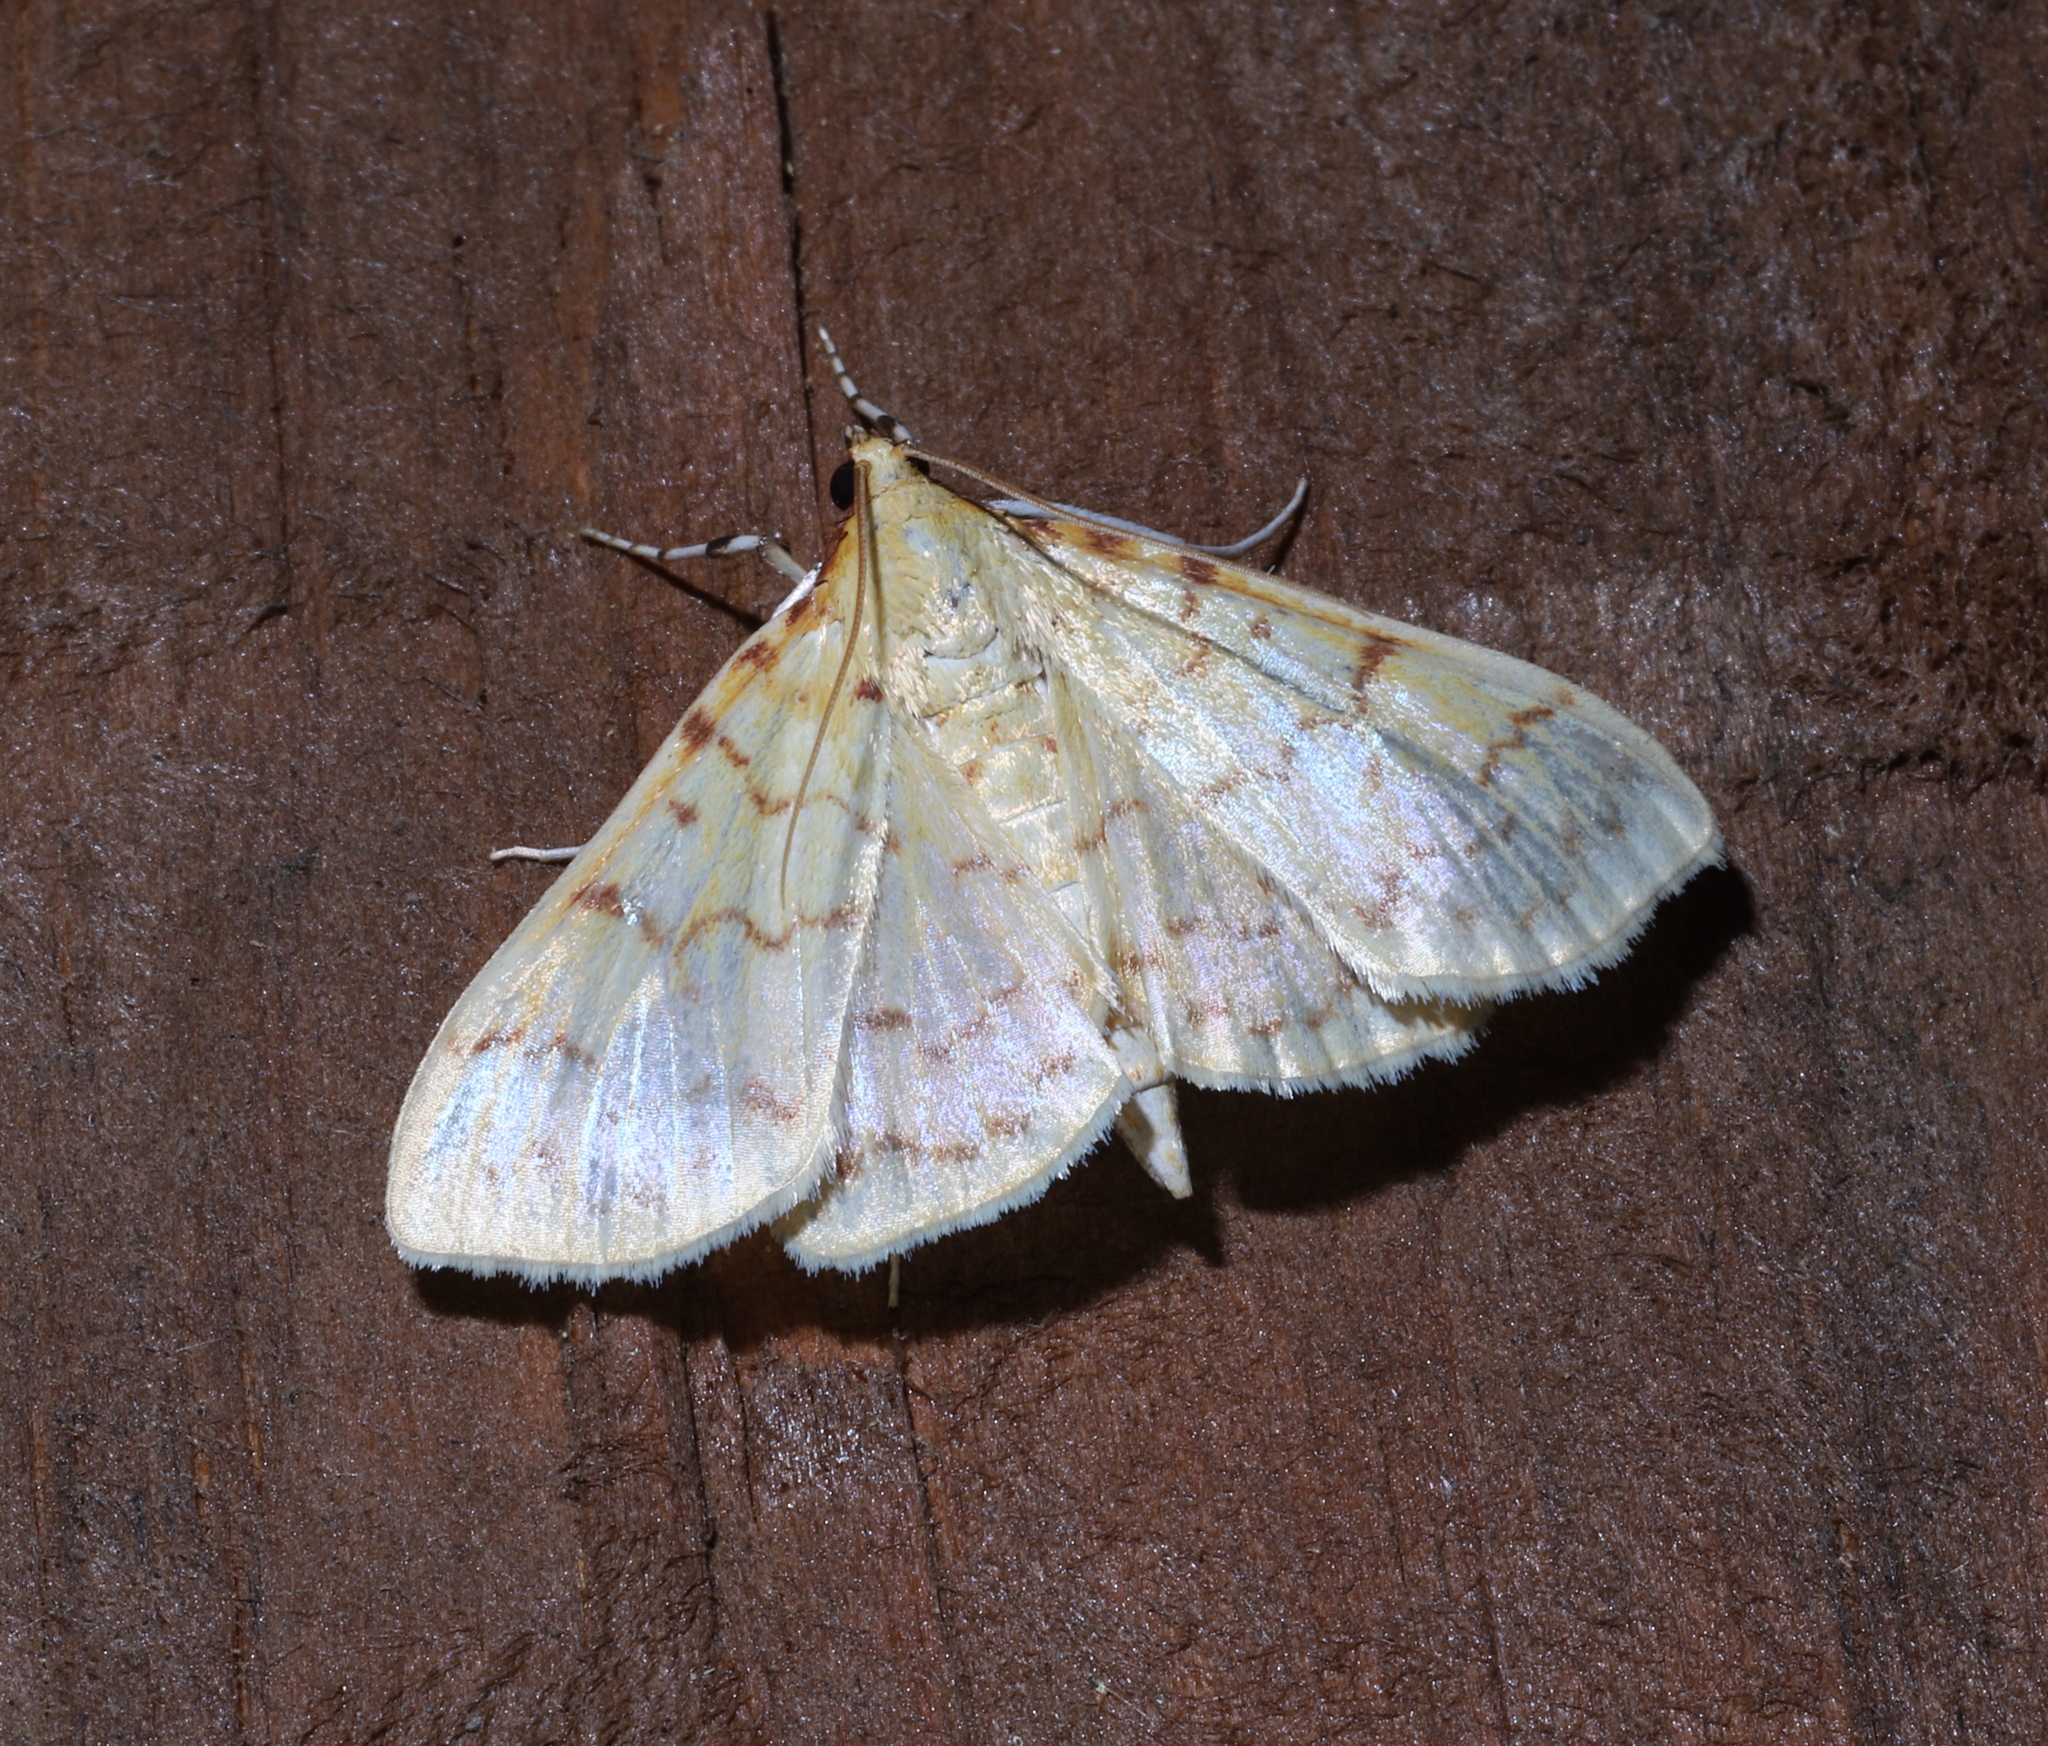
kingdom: Animalia
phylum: Arthropoda
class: Insecta
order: Lepidoptera
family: Crambidae
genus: Polygrammodes
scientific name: Polygrammodes flavidalis
